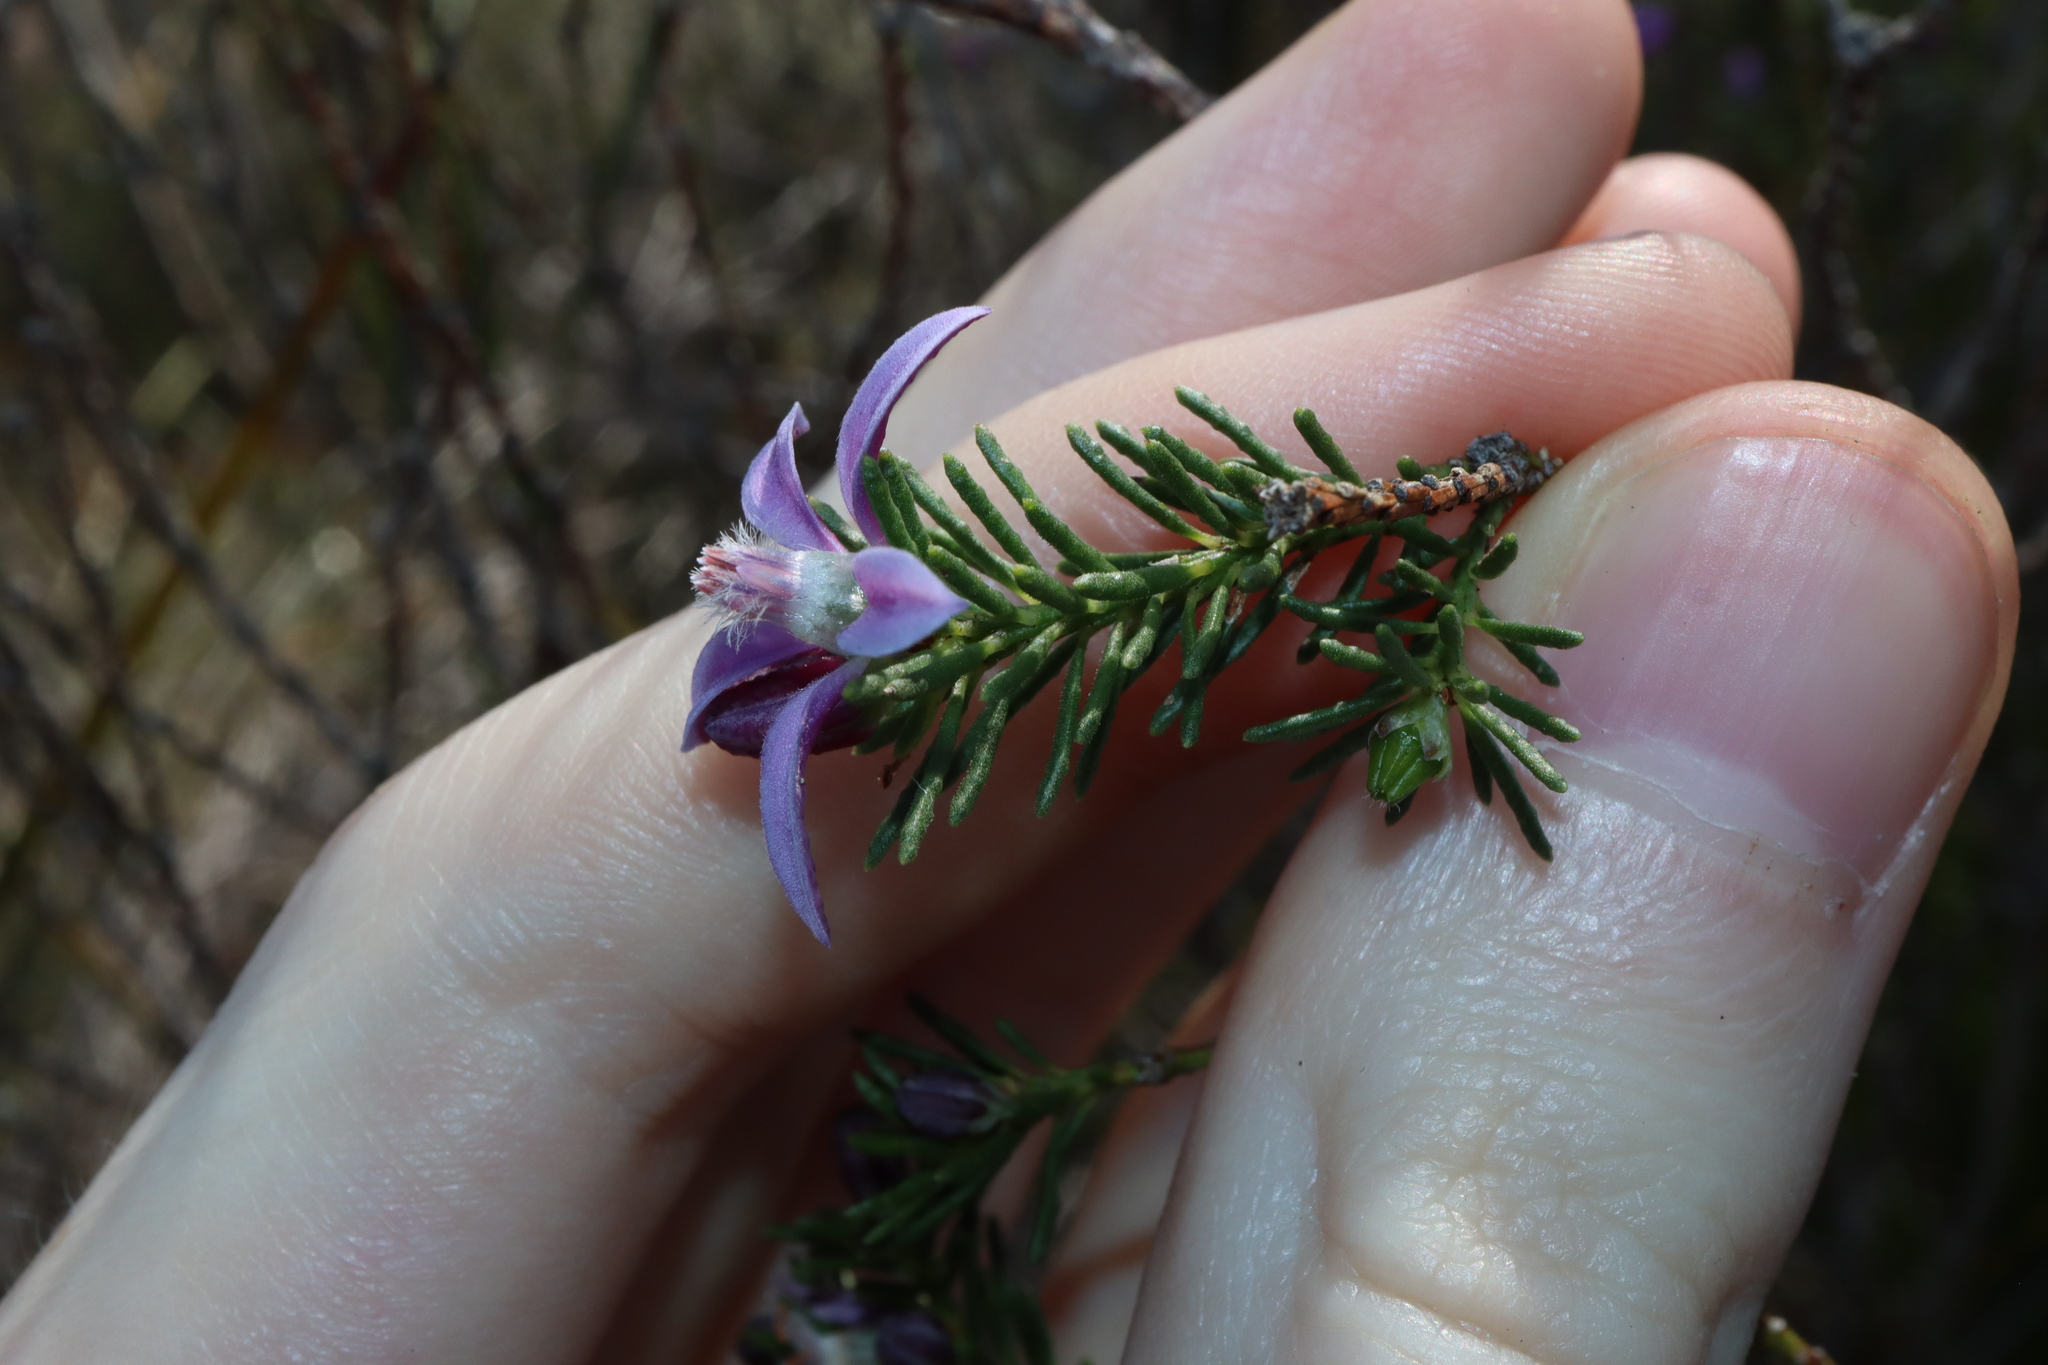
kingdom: Plantae
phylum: Tracheophyta
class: Magnoliopsida
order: Sapindales
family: Rutaceae
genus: Philotheca
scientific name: Philotheca salsolifolia
